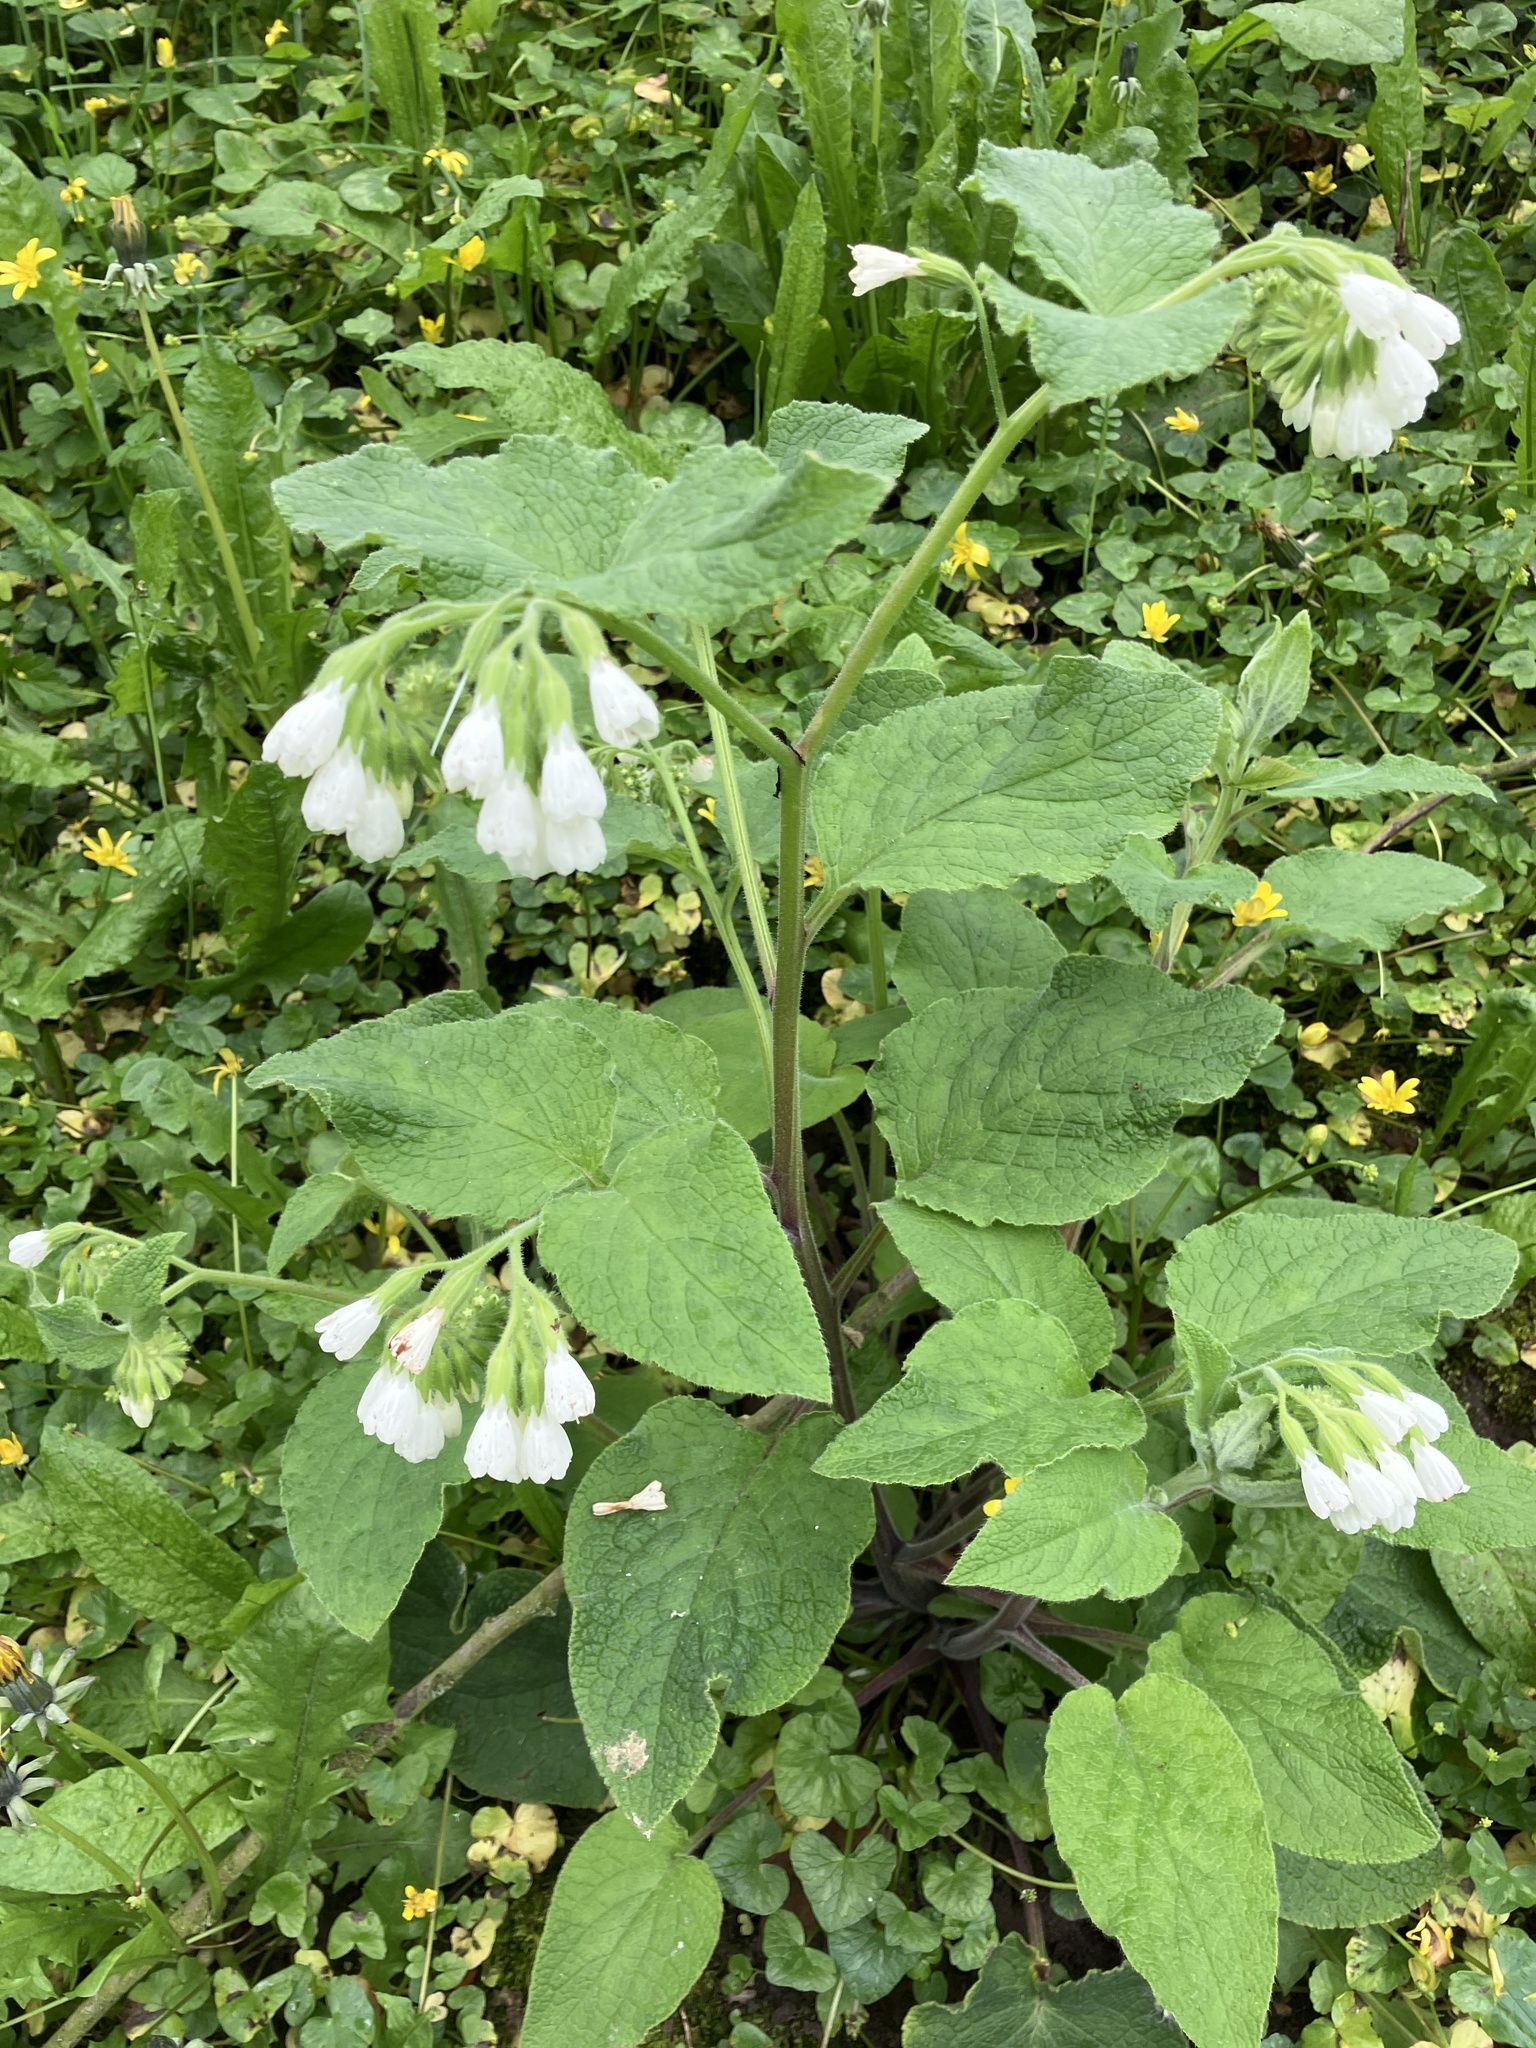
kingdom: Plantae
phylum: Tracheophyta
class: Magnoliopsida
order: Boraginales
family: Boraginaceae
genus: Symphytum
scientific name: Symphytum orientale
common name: White comfrey
